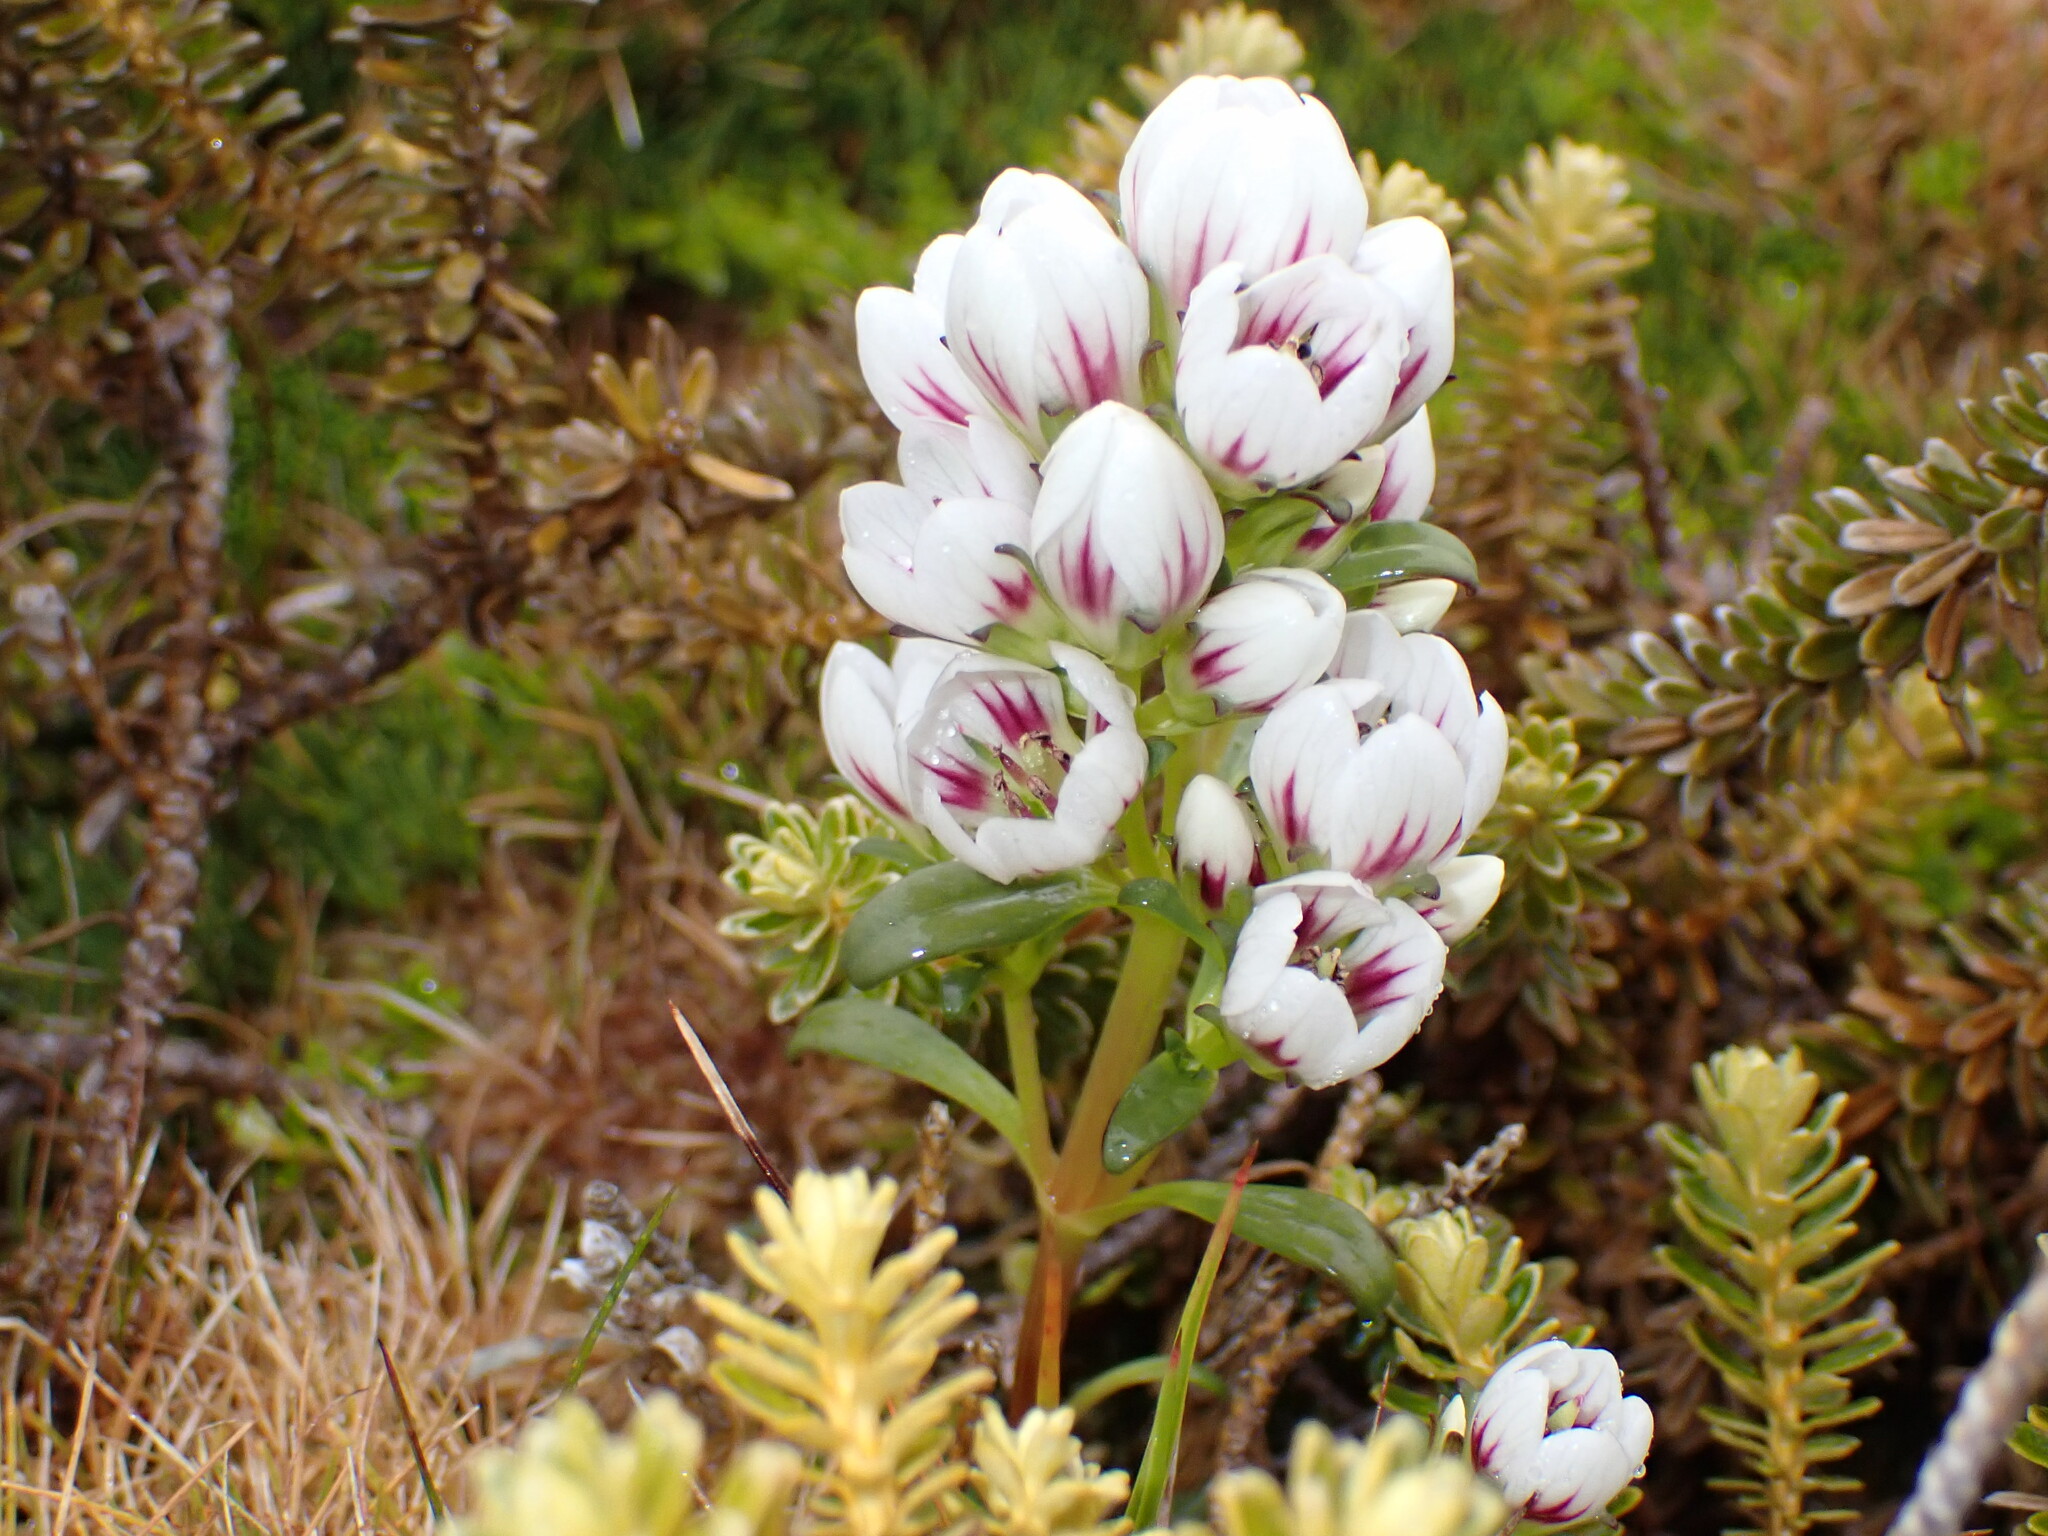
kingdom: Plantae
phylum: Tracheophyta
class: Magnoliopsida
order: Gentianales
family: Gentianaceae
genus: Gentianella
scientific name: Gentianella cerina
